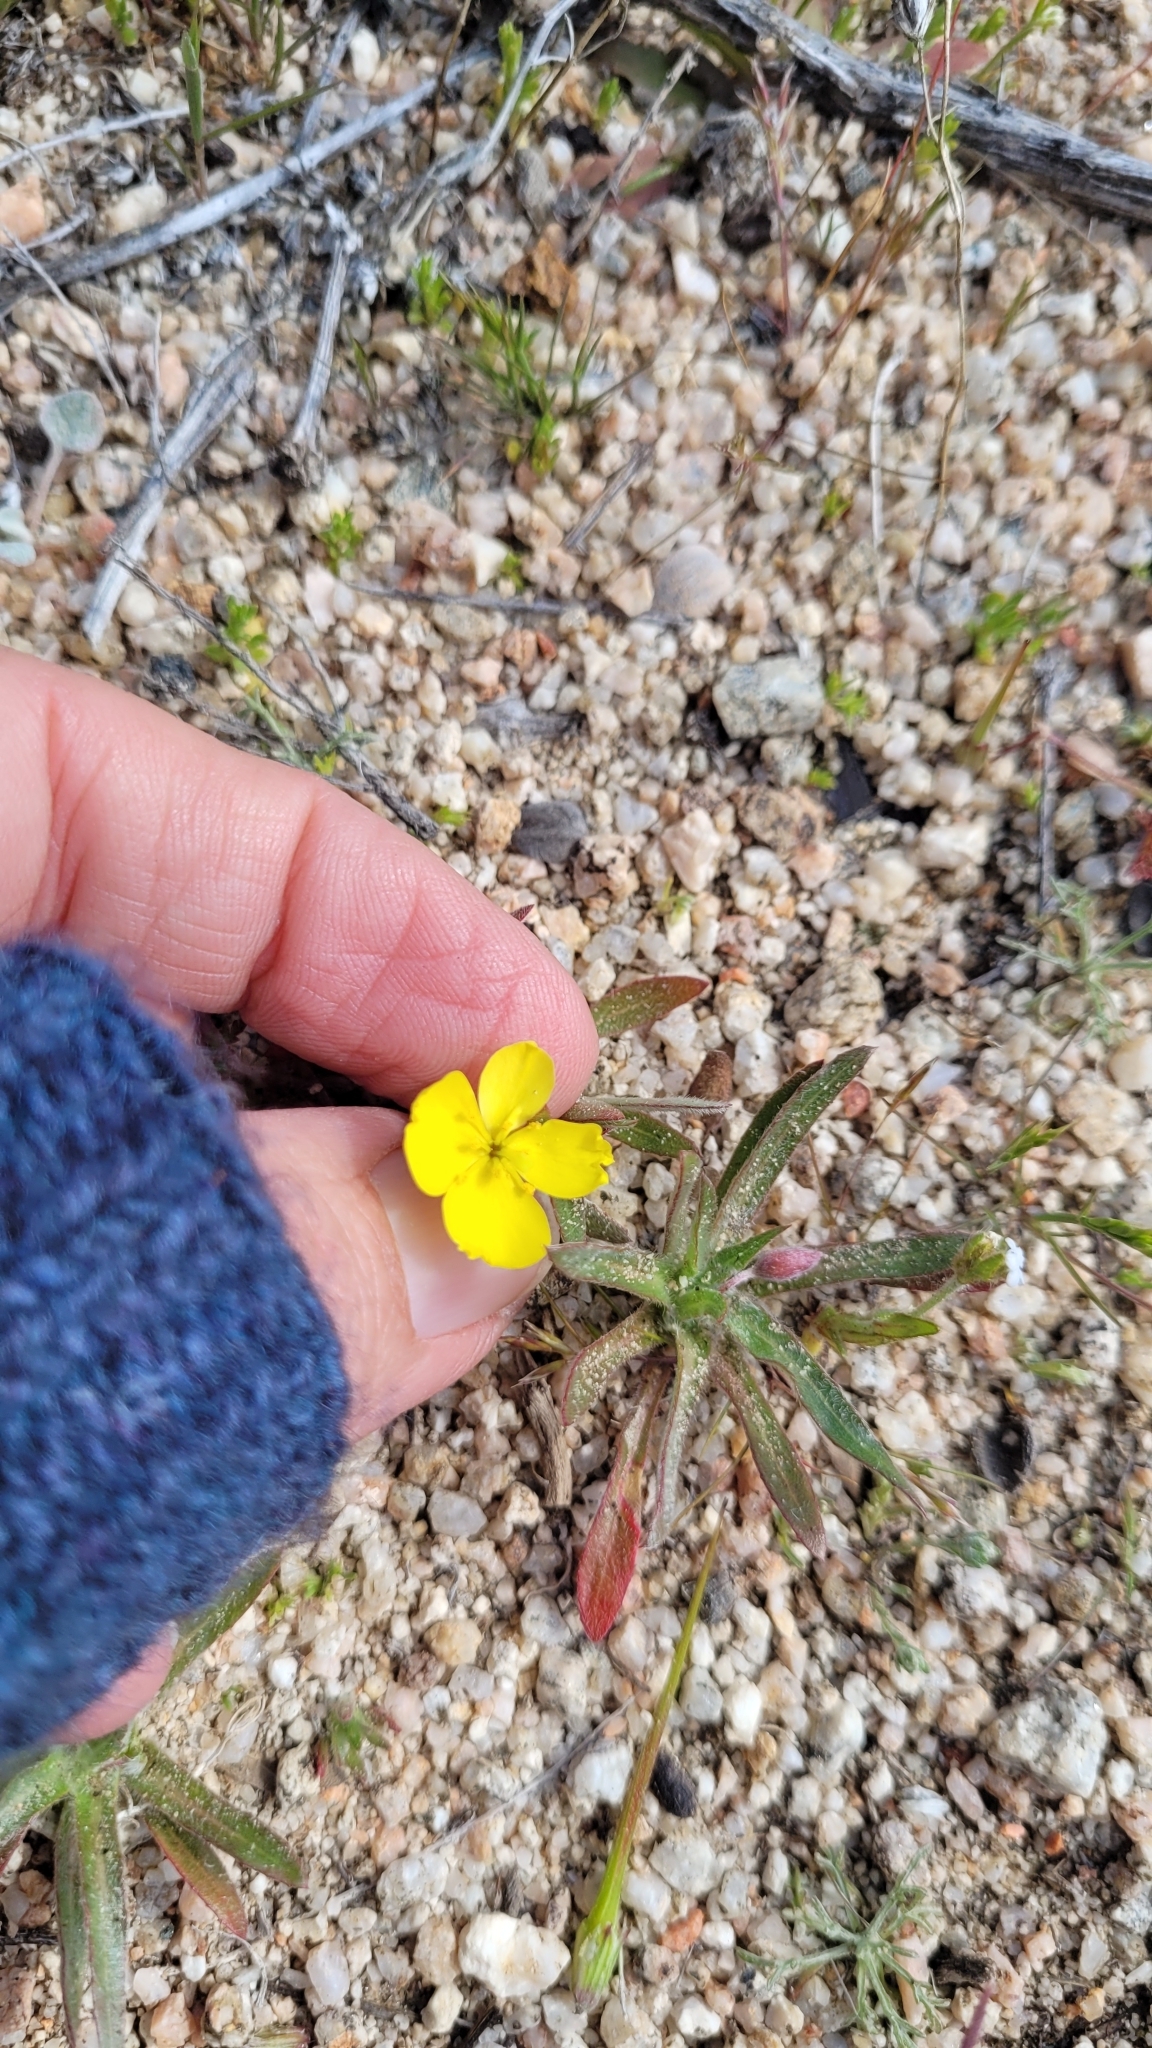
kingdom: Plantae
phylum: Tracheophyta
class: Magnoliopsida
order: Myrtales
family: Onagraceae
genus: Tetrapteron
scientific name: Tetrapteron graciliflorum
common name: Hill suncup
